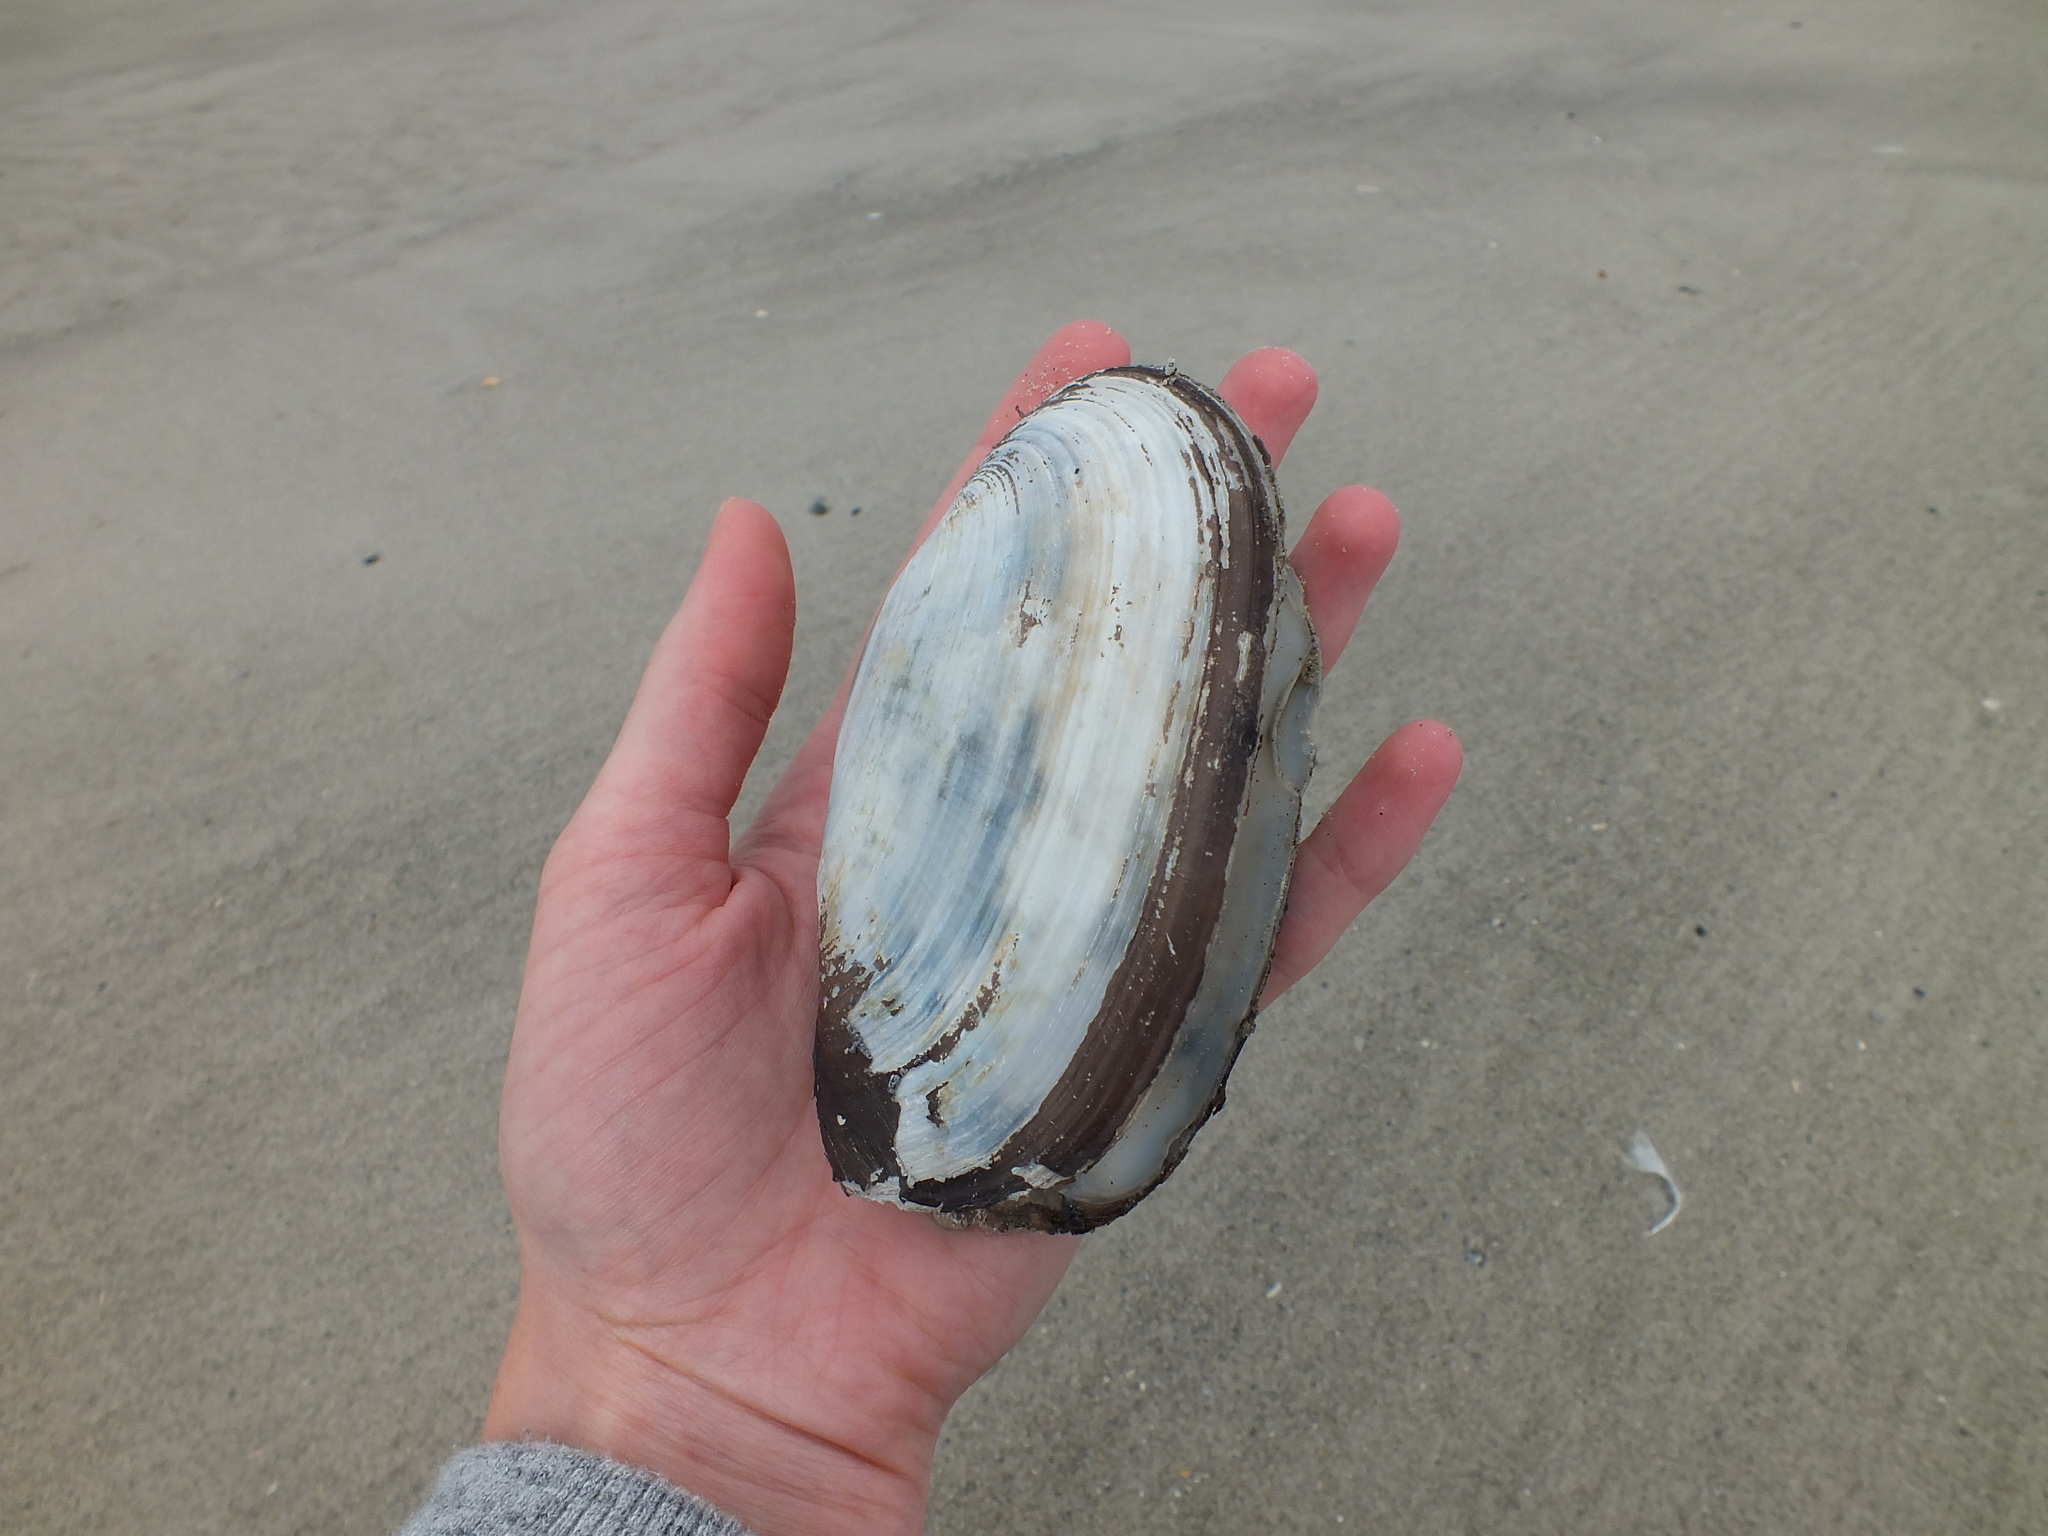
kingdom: Animalia
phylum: Mollusca
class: Bivalvia
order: Venerida
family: Mactridae
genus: Lutraria
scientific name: Lutraria lutraria
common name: Common otter shell
